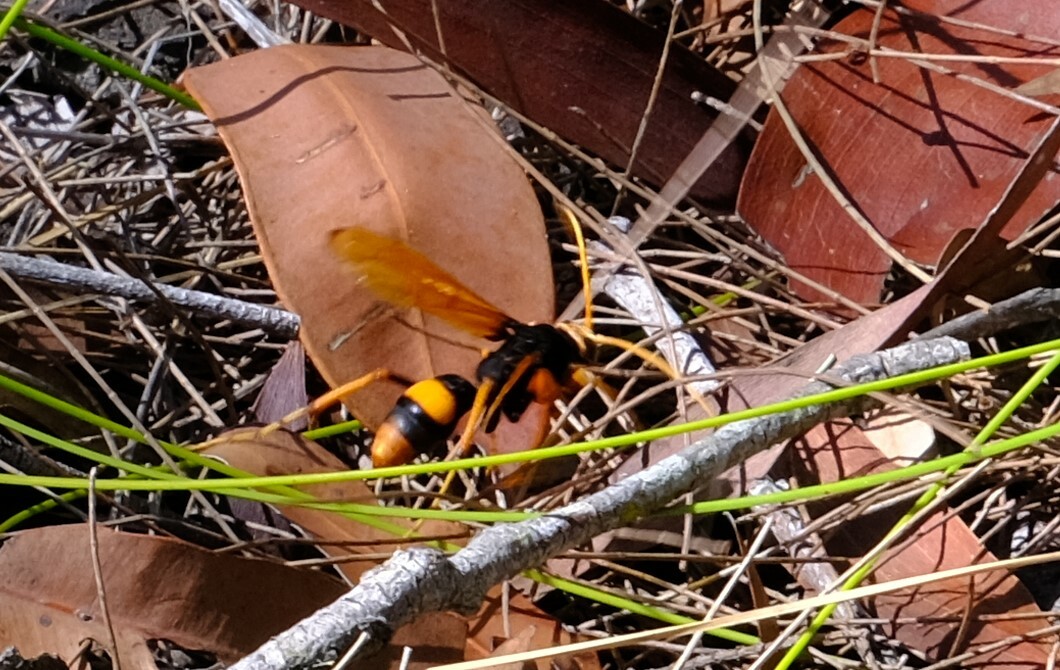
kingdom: Animalia
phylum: Arthropoda
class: Insecta
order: Hymenoptera
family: Pompilidae
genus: Cryptocheilus
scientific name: Cryptocheilus octomaculatus
